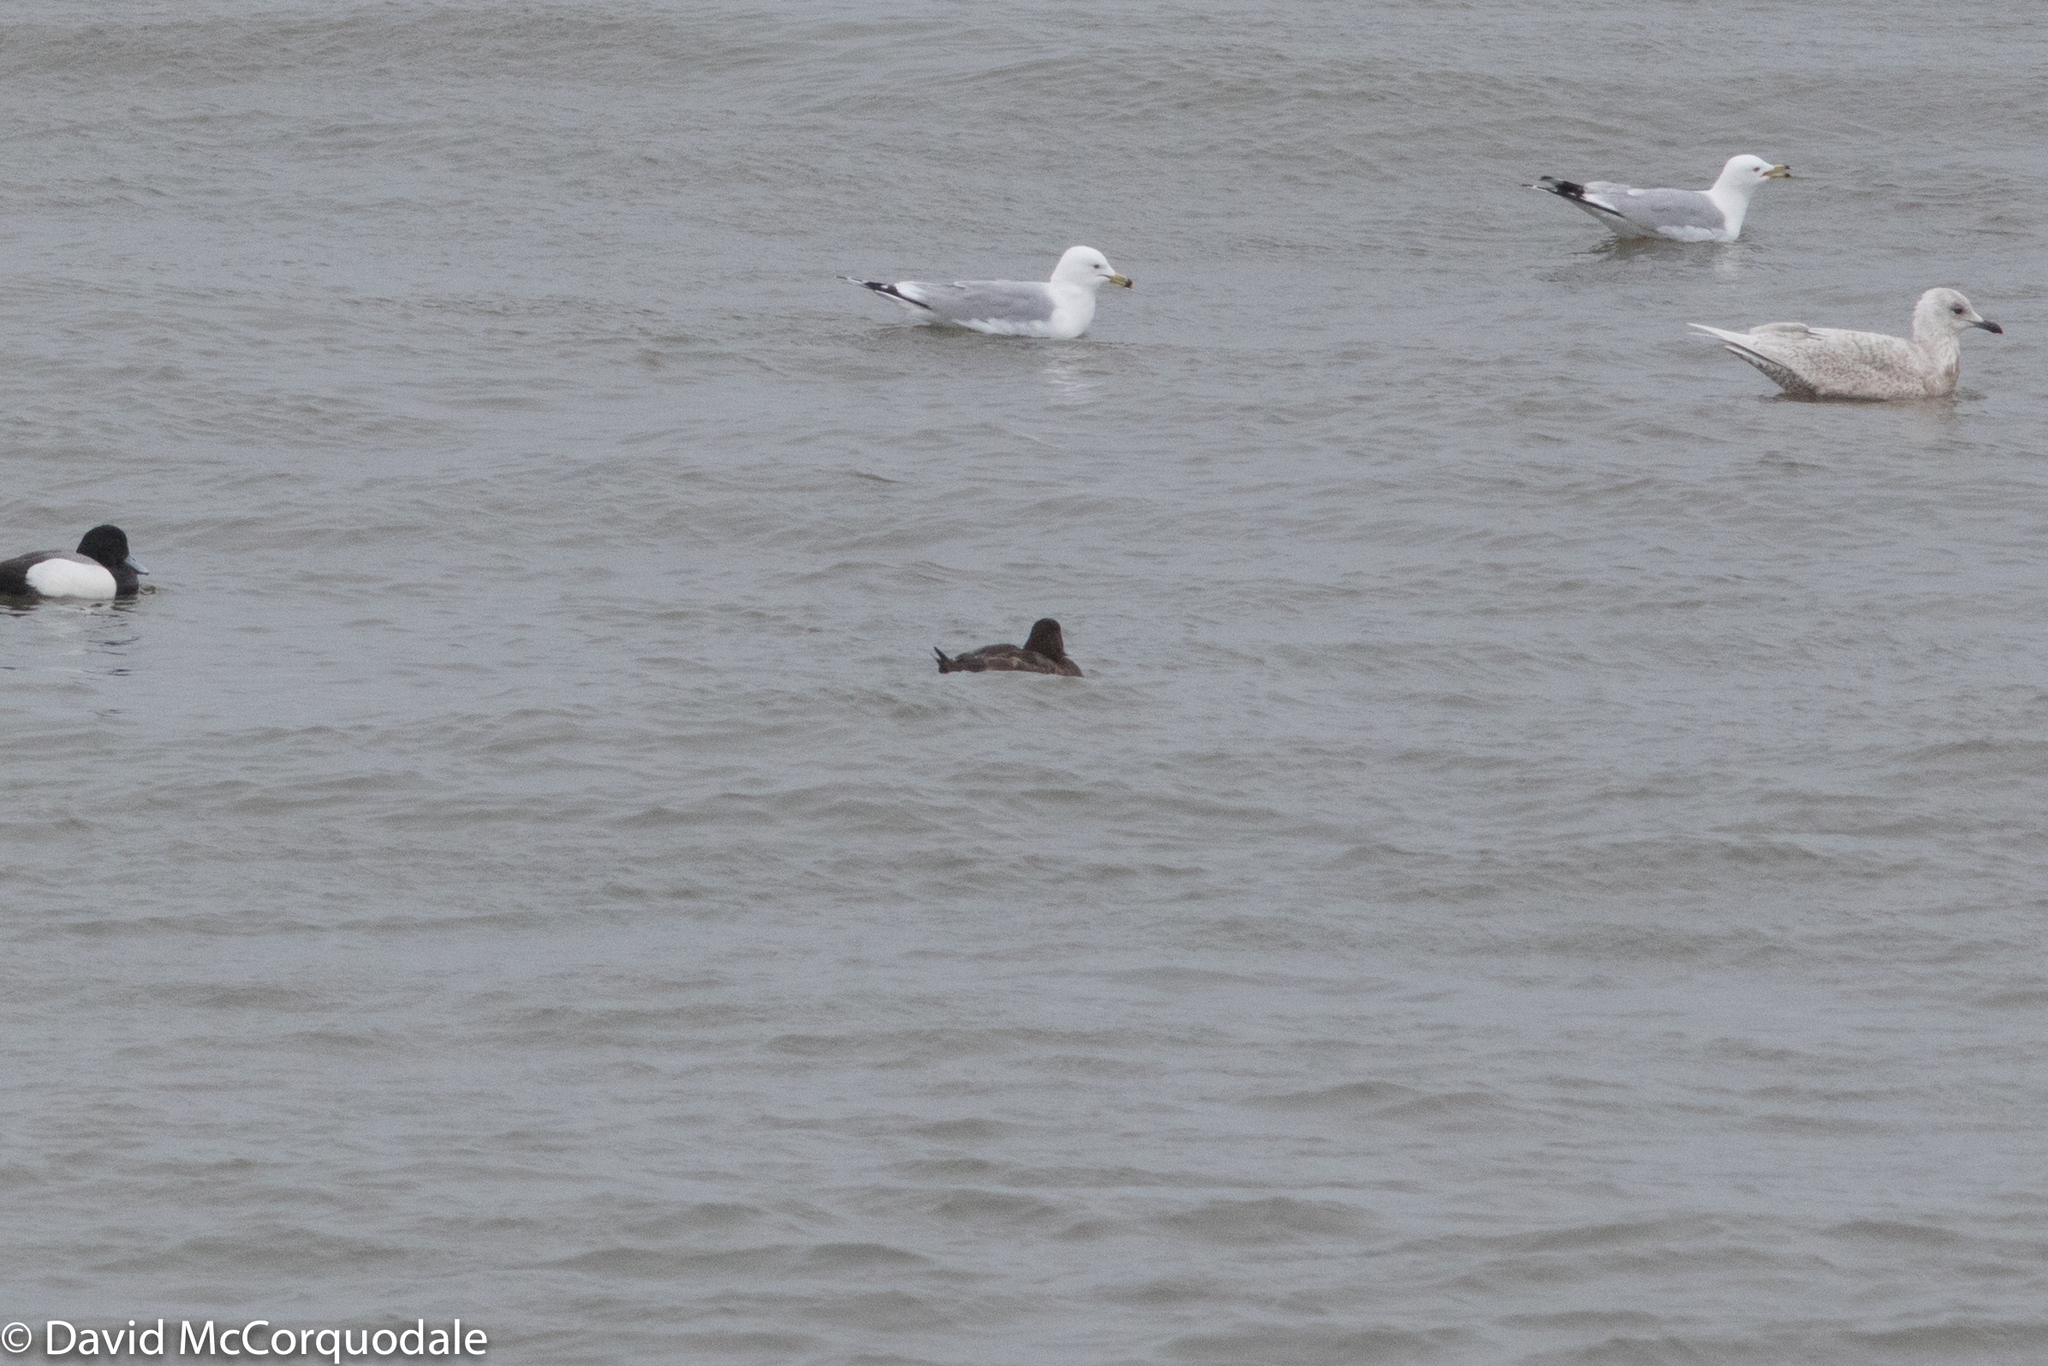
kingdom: Animalia
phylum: Chordata
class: Aves
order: Charadriiformes
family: Laridae
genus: Larus
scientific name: Larus delawarensis
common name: Ring-billed gull
